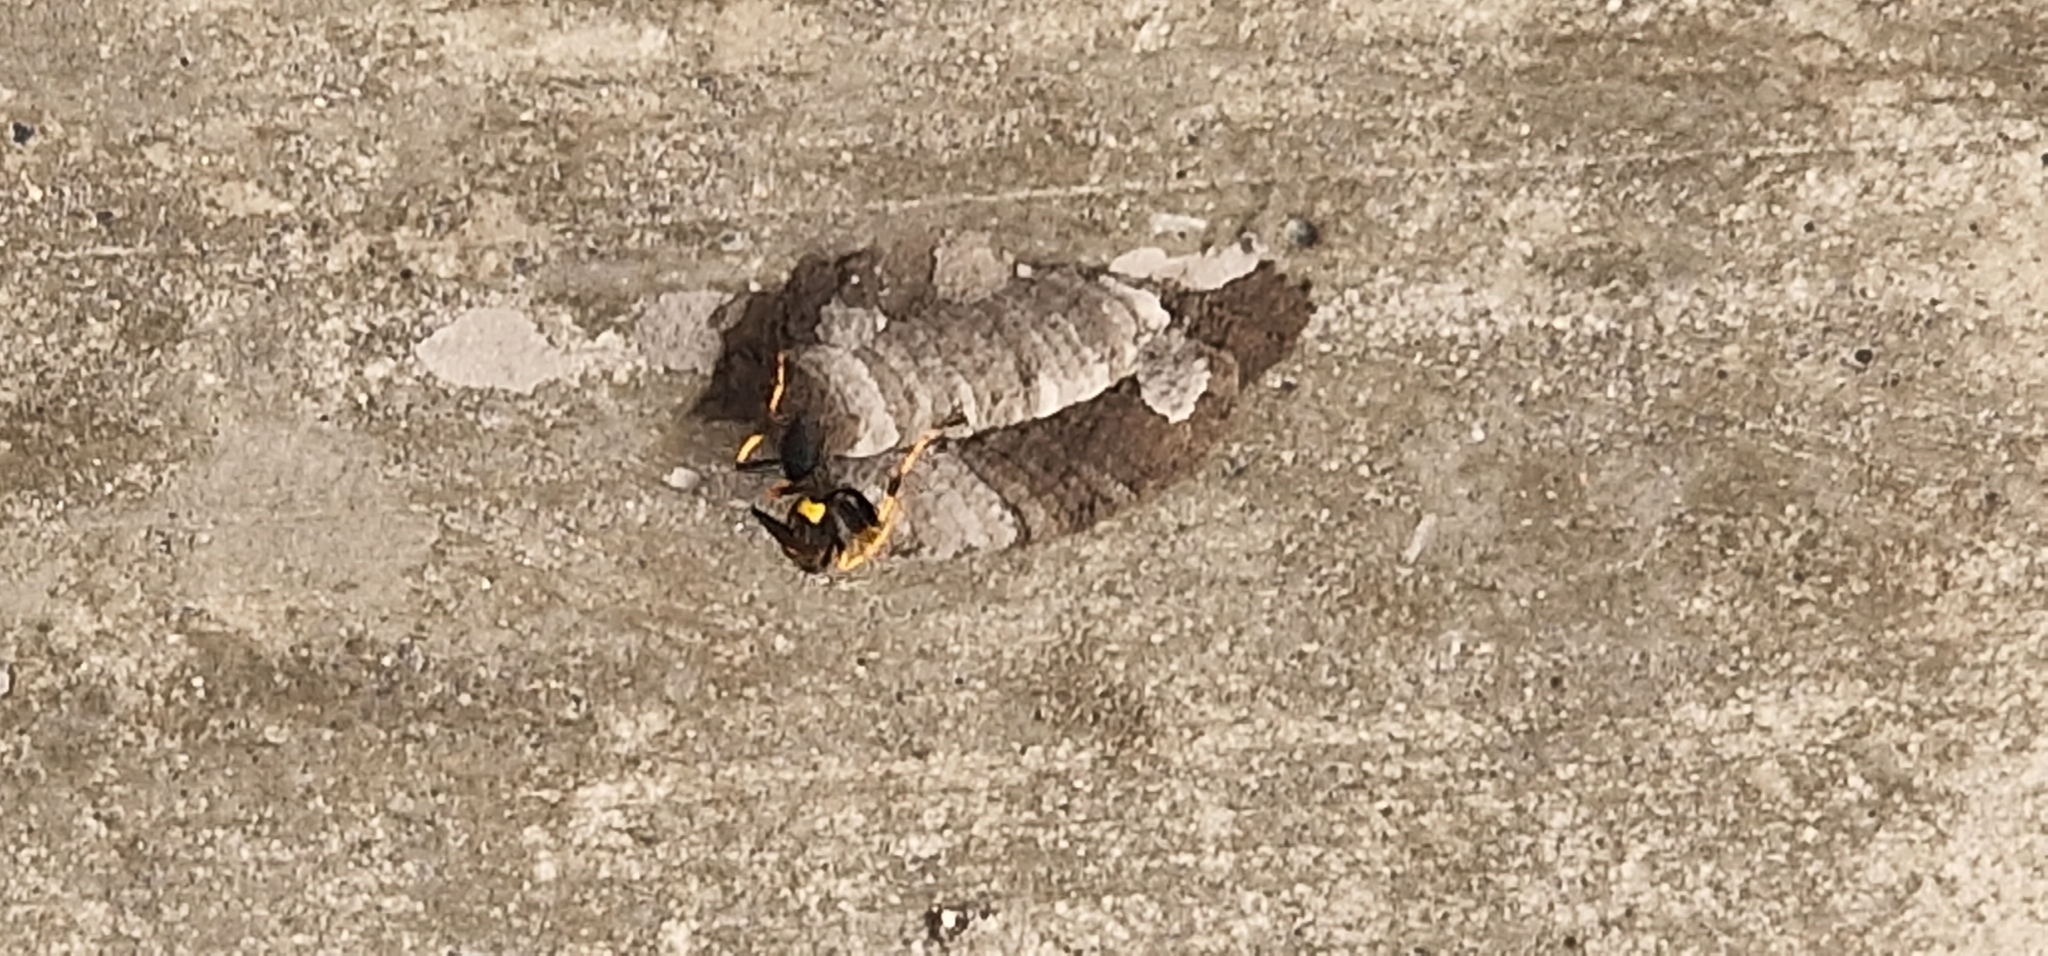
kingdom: Animalia
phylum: Arthropoda
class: Insecta
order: Hymenoptera
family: Sphecidae
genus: Sceliphron
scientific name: Sceliphron caementarium
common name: Mud dauber
